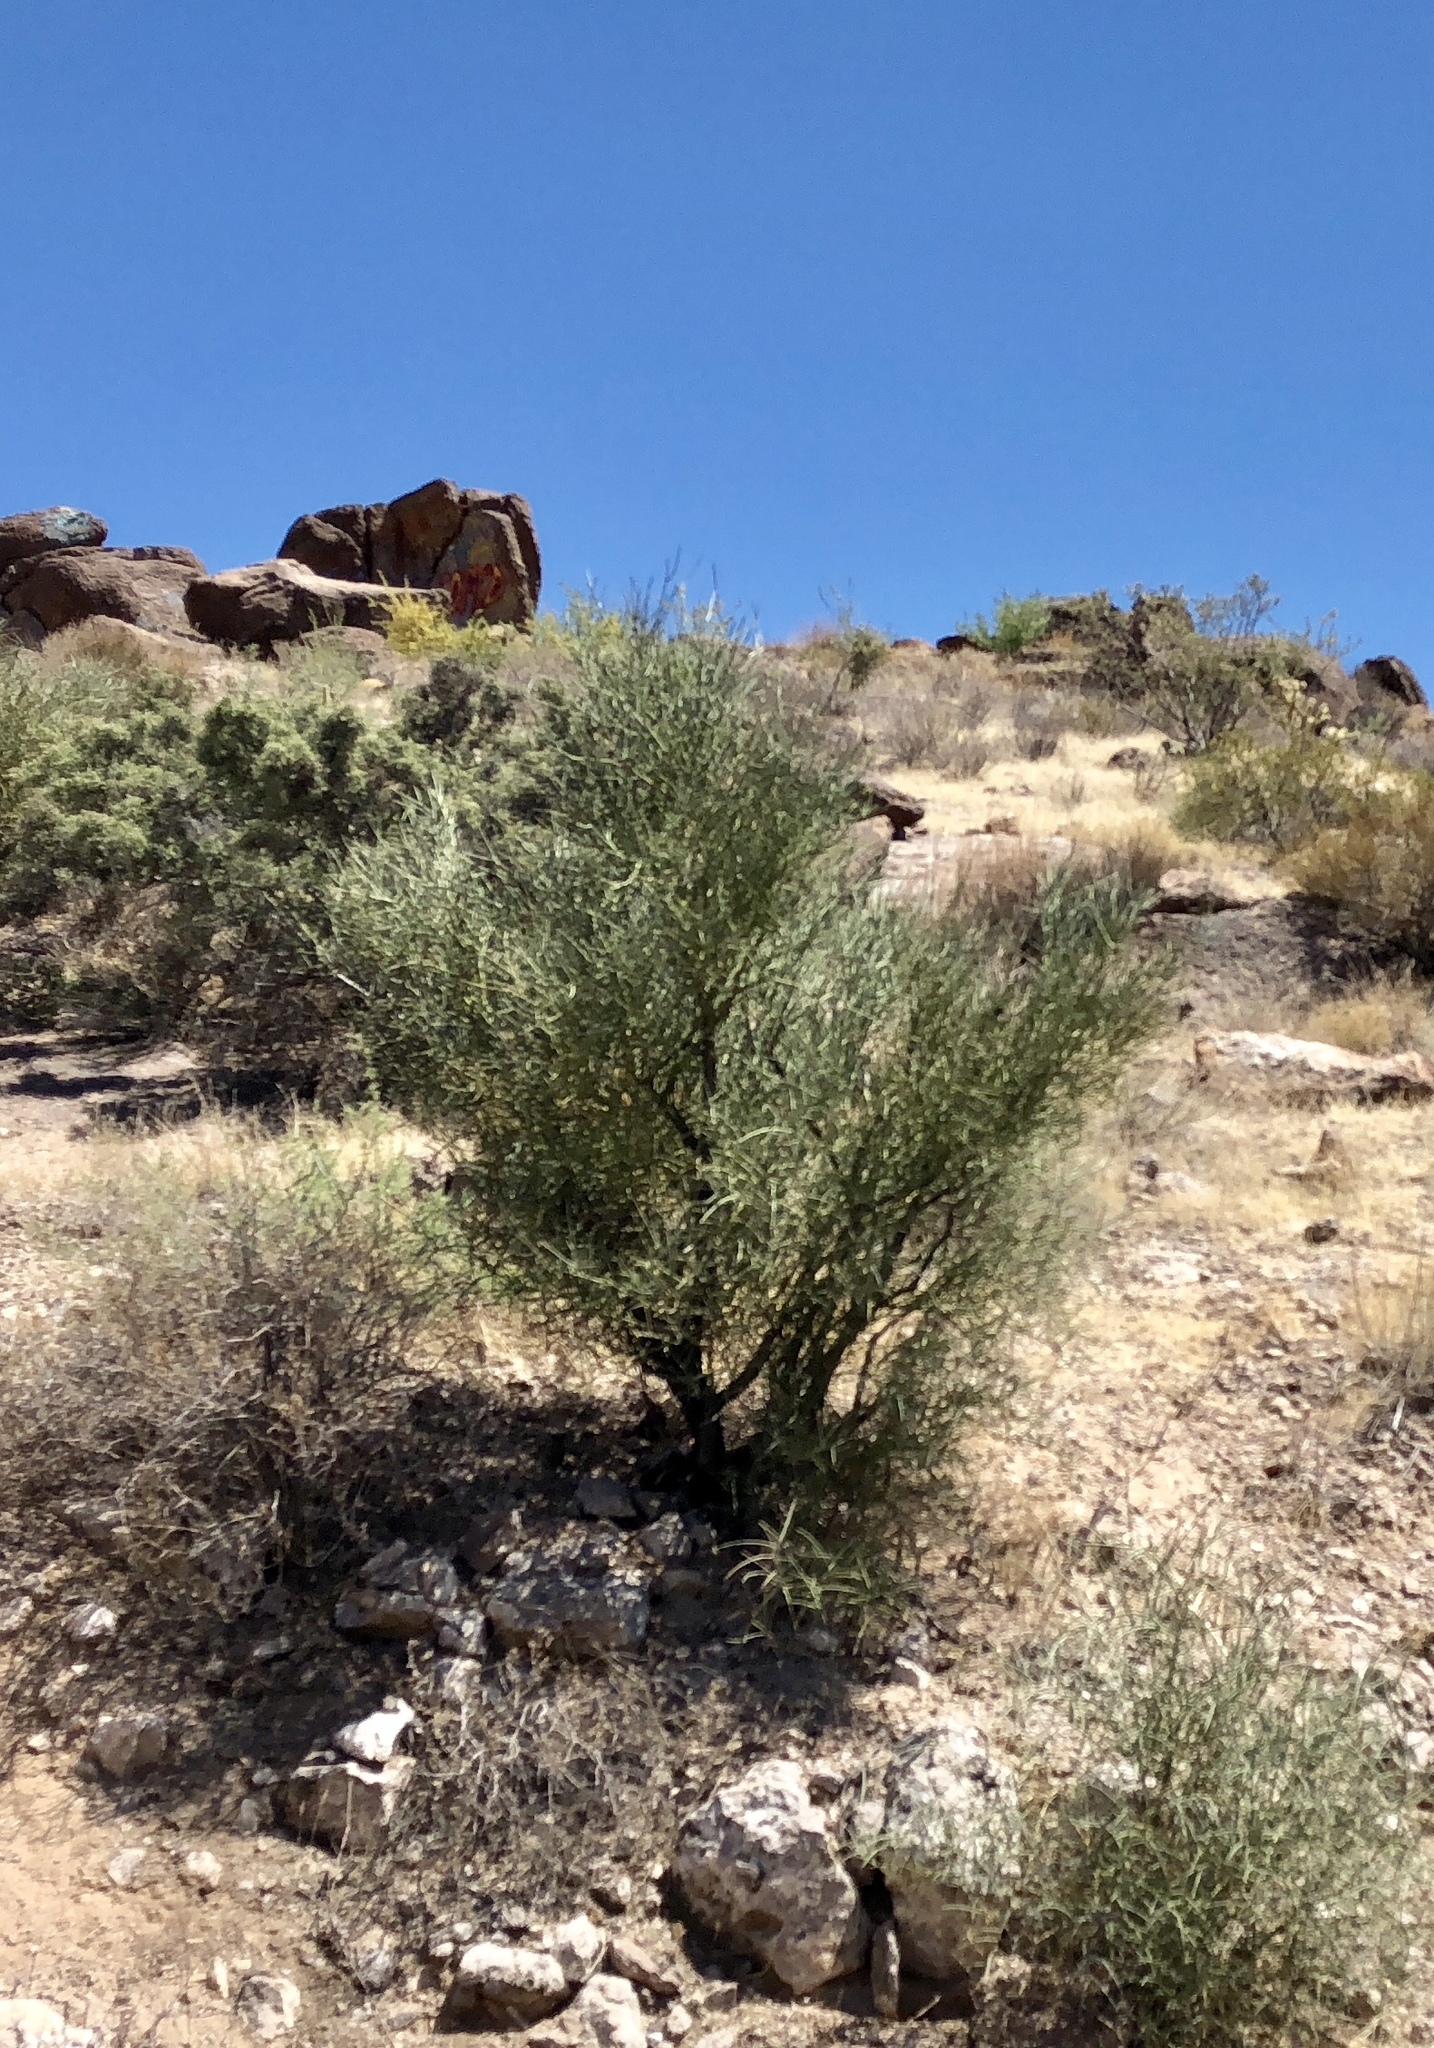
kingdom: Plantae
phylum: Tracheophyta
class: Magnoliopsida
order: Celastrales
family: Celastraceae
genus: Canotia
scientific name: Canotia holacantha
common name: Crucifixion thorns
